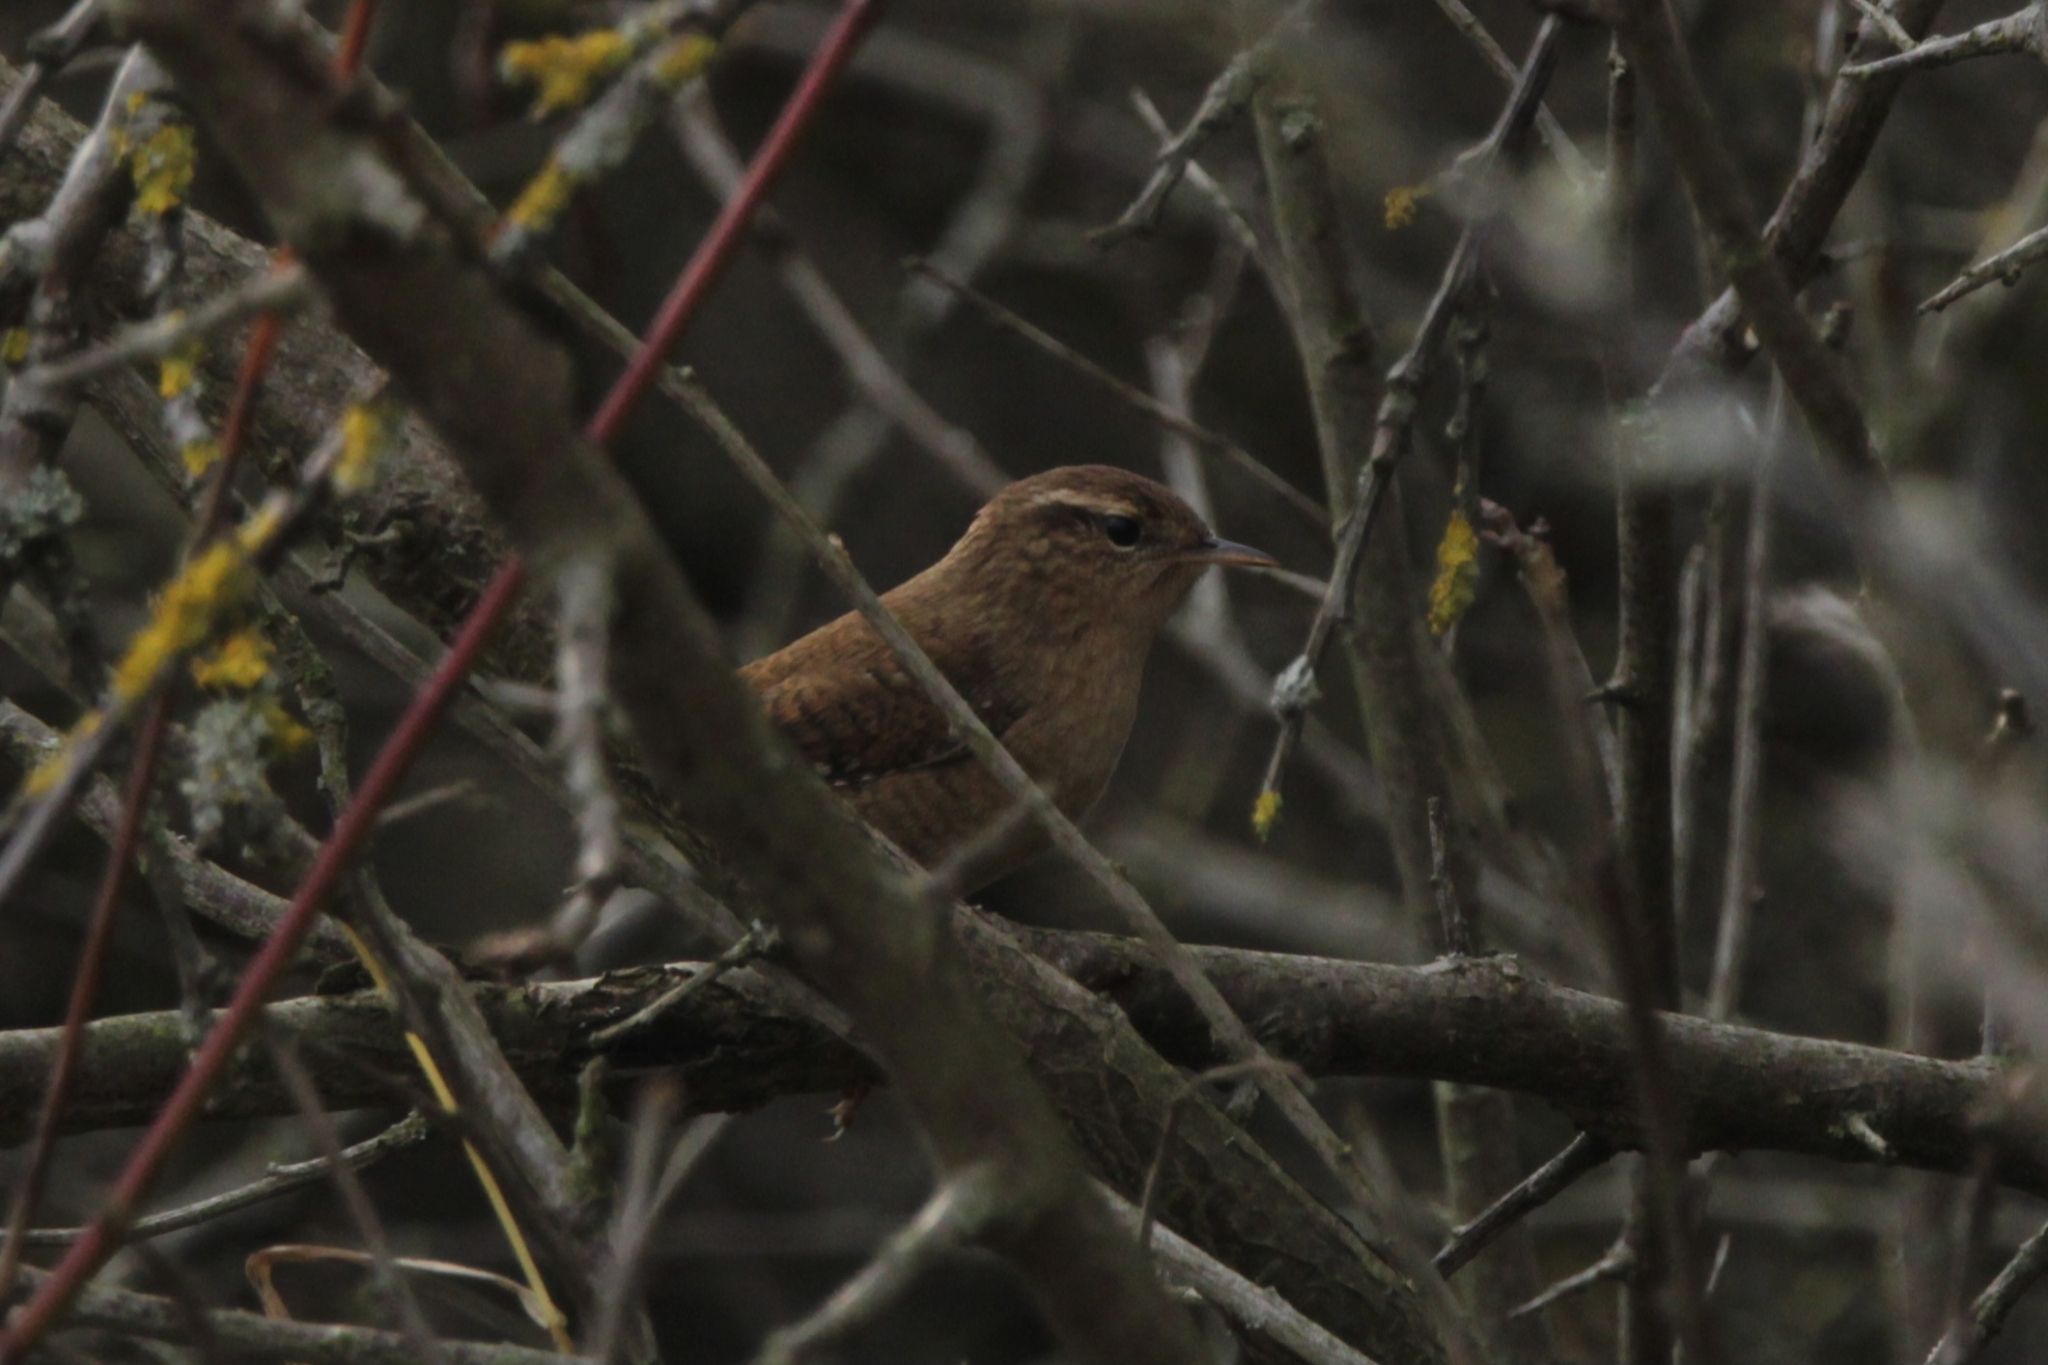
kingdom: Animalia
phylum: Chordata
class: Aves
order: Passeriformes
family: Troglodytidae
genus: Troglodytes
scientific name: Troglodytes troglodytes
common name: Eurasian wren
